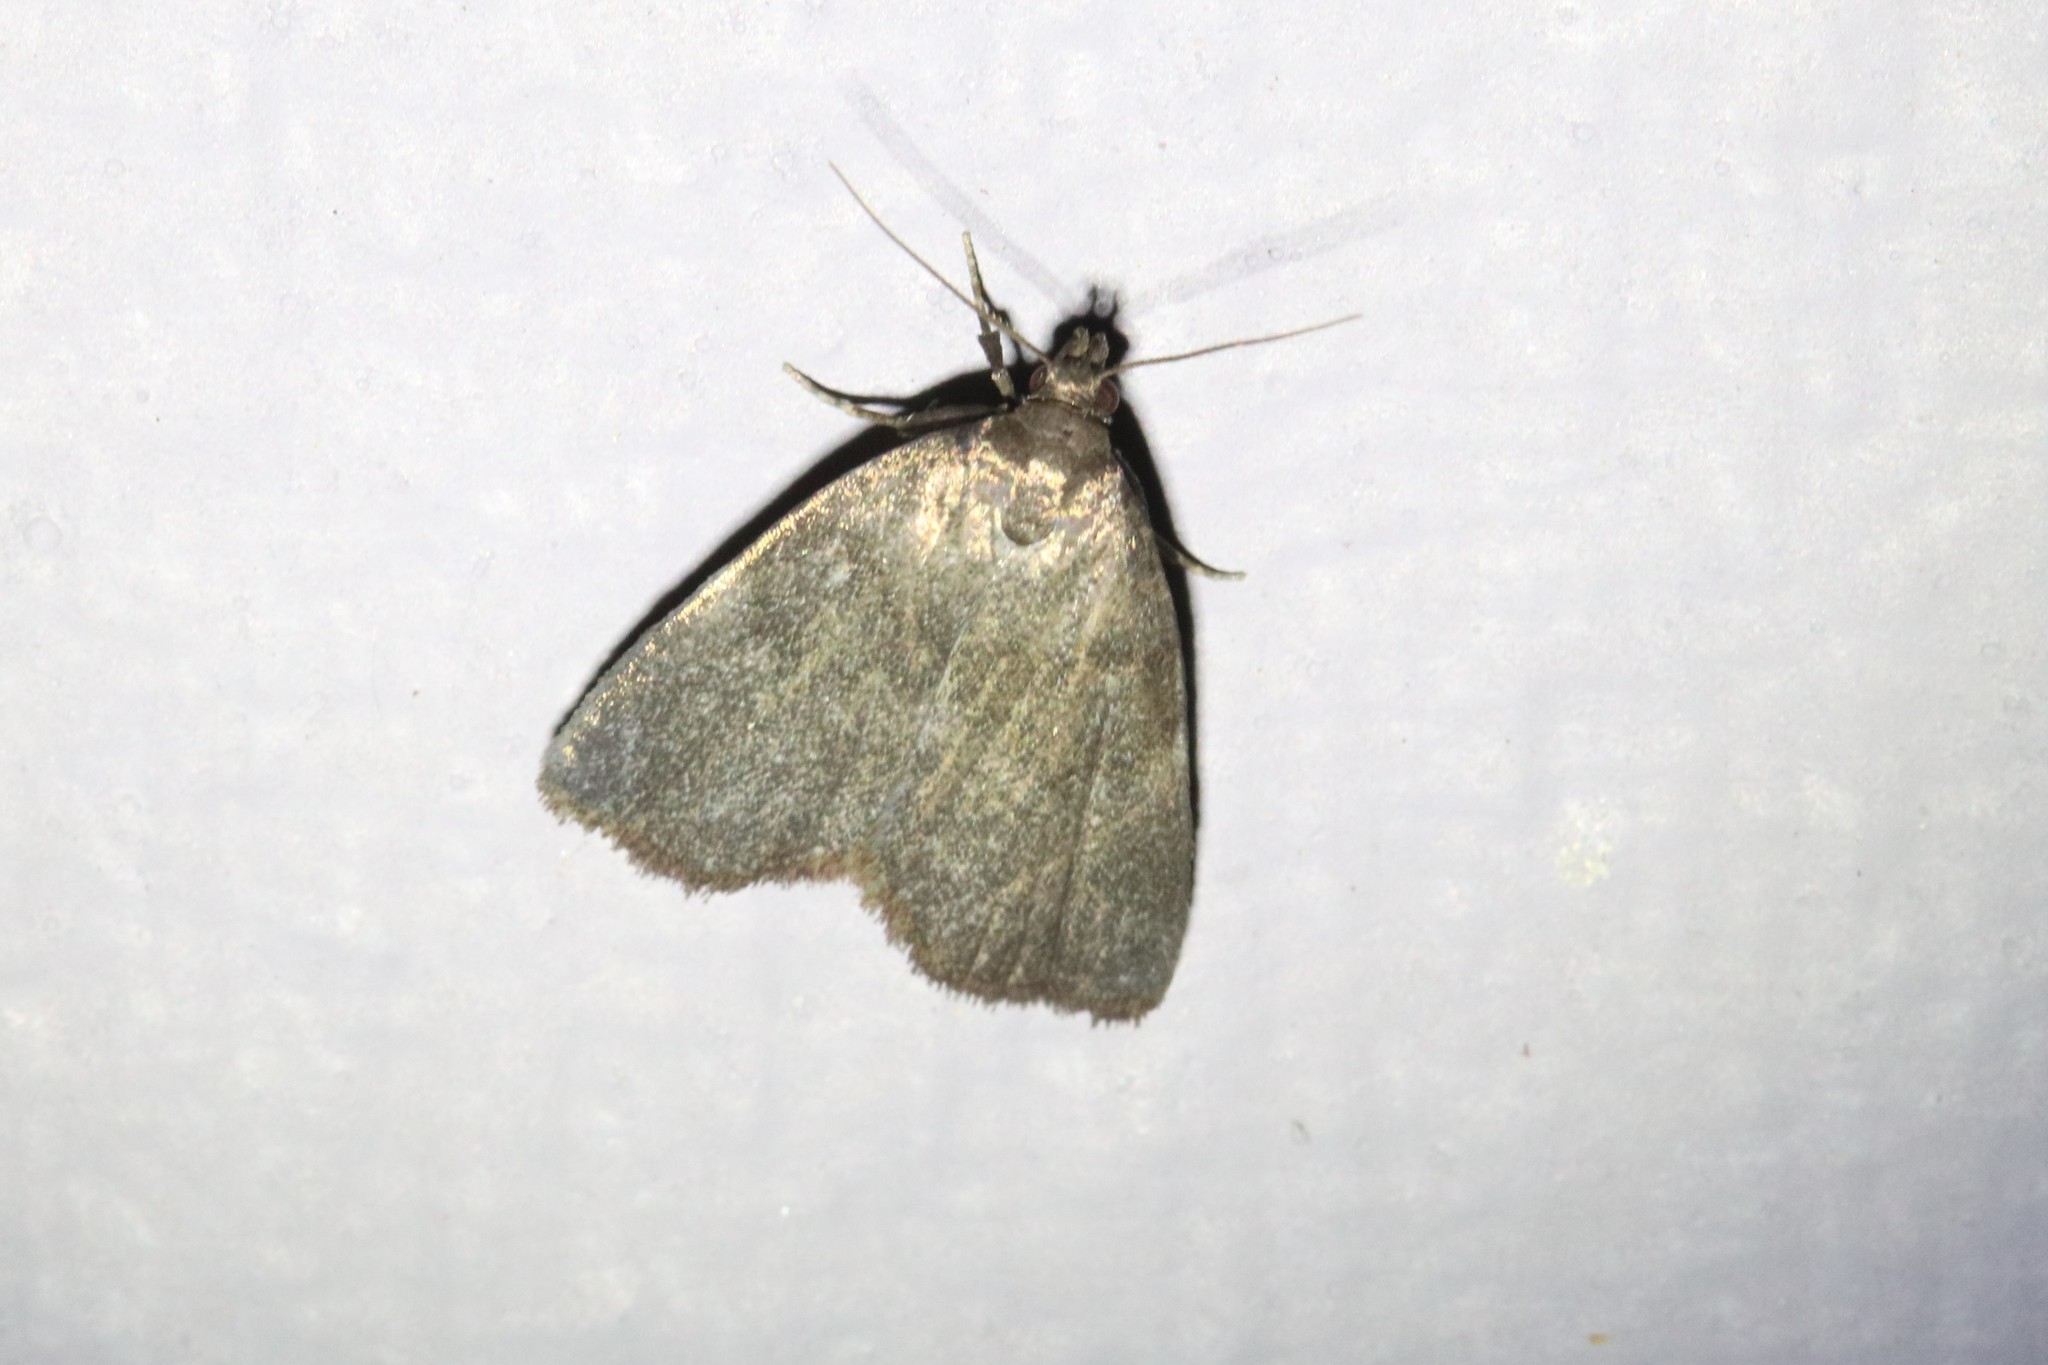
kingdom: Animalia
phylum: Arthropoda
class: Insecta
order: Lepidoptera
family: Erebidae
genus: Idia
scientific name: Idia rotundalis
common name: Rotund idia moth
